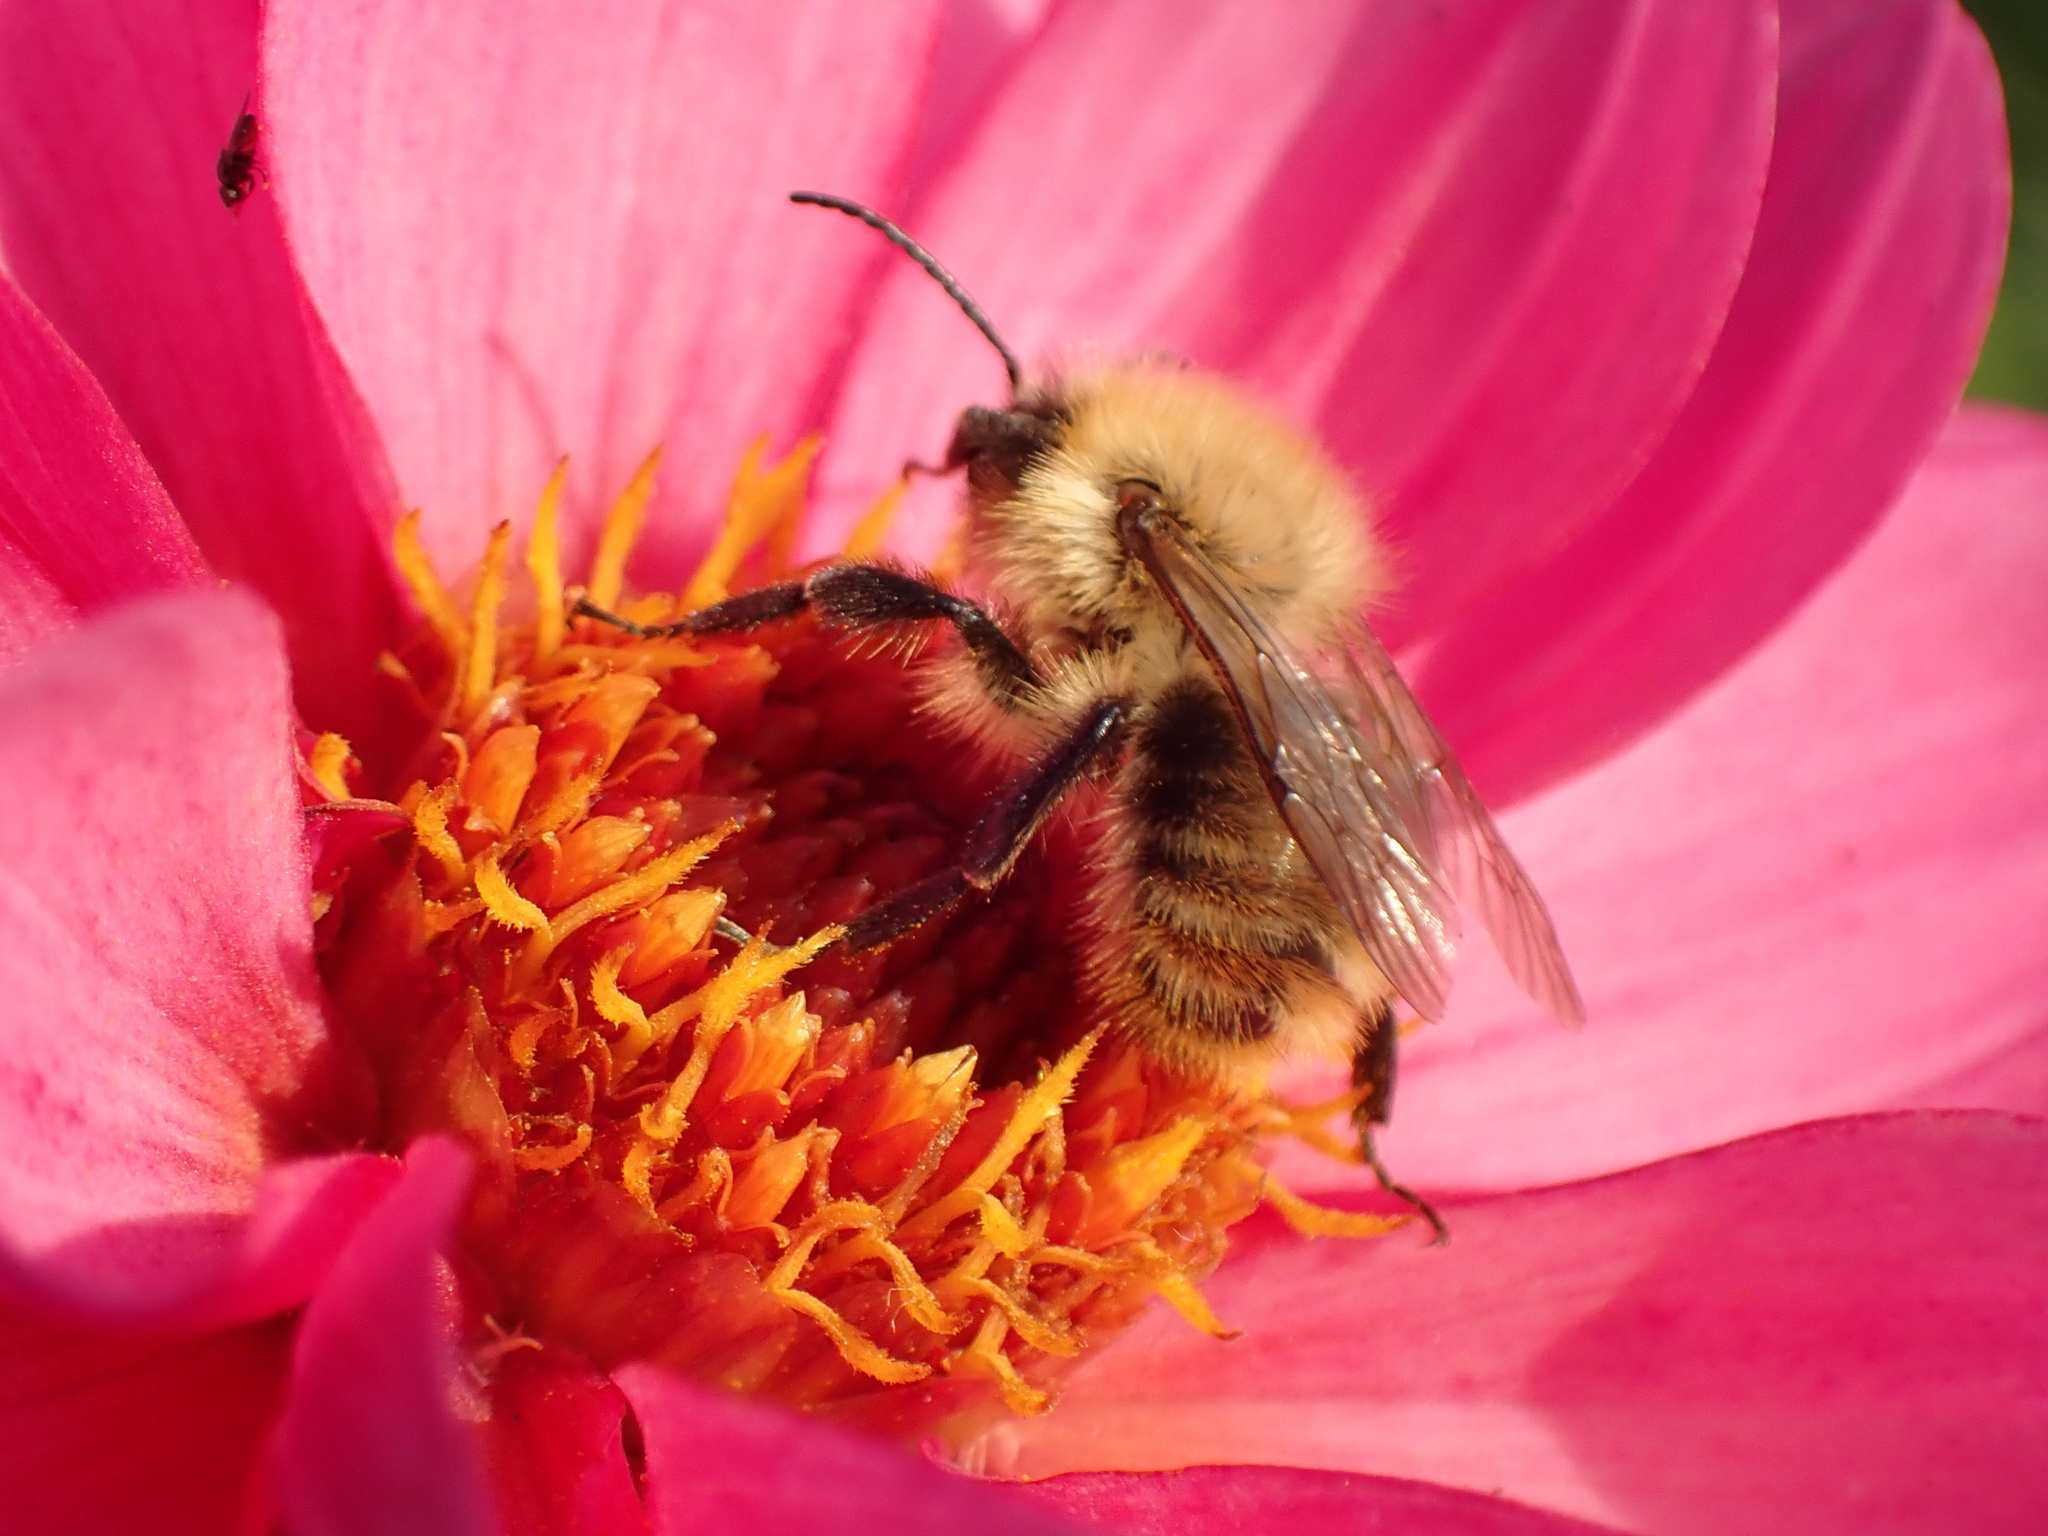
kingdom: Animalia
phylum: Arthropoda
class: Insecta
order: Hymenoptera
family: Apidae
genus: Bombus
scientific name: Bombus pascuorum
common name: Common carder bee
